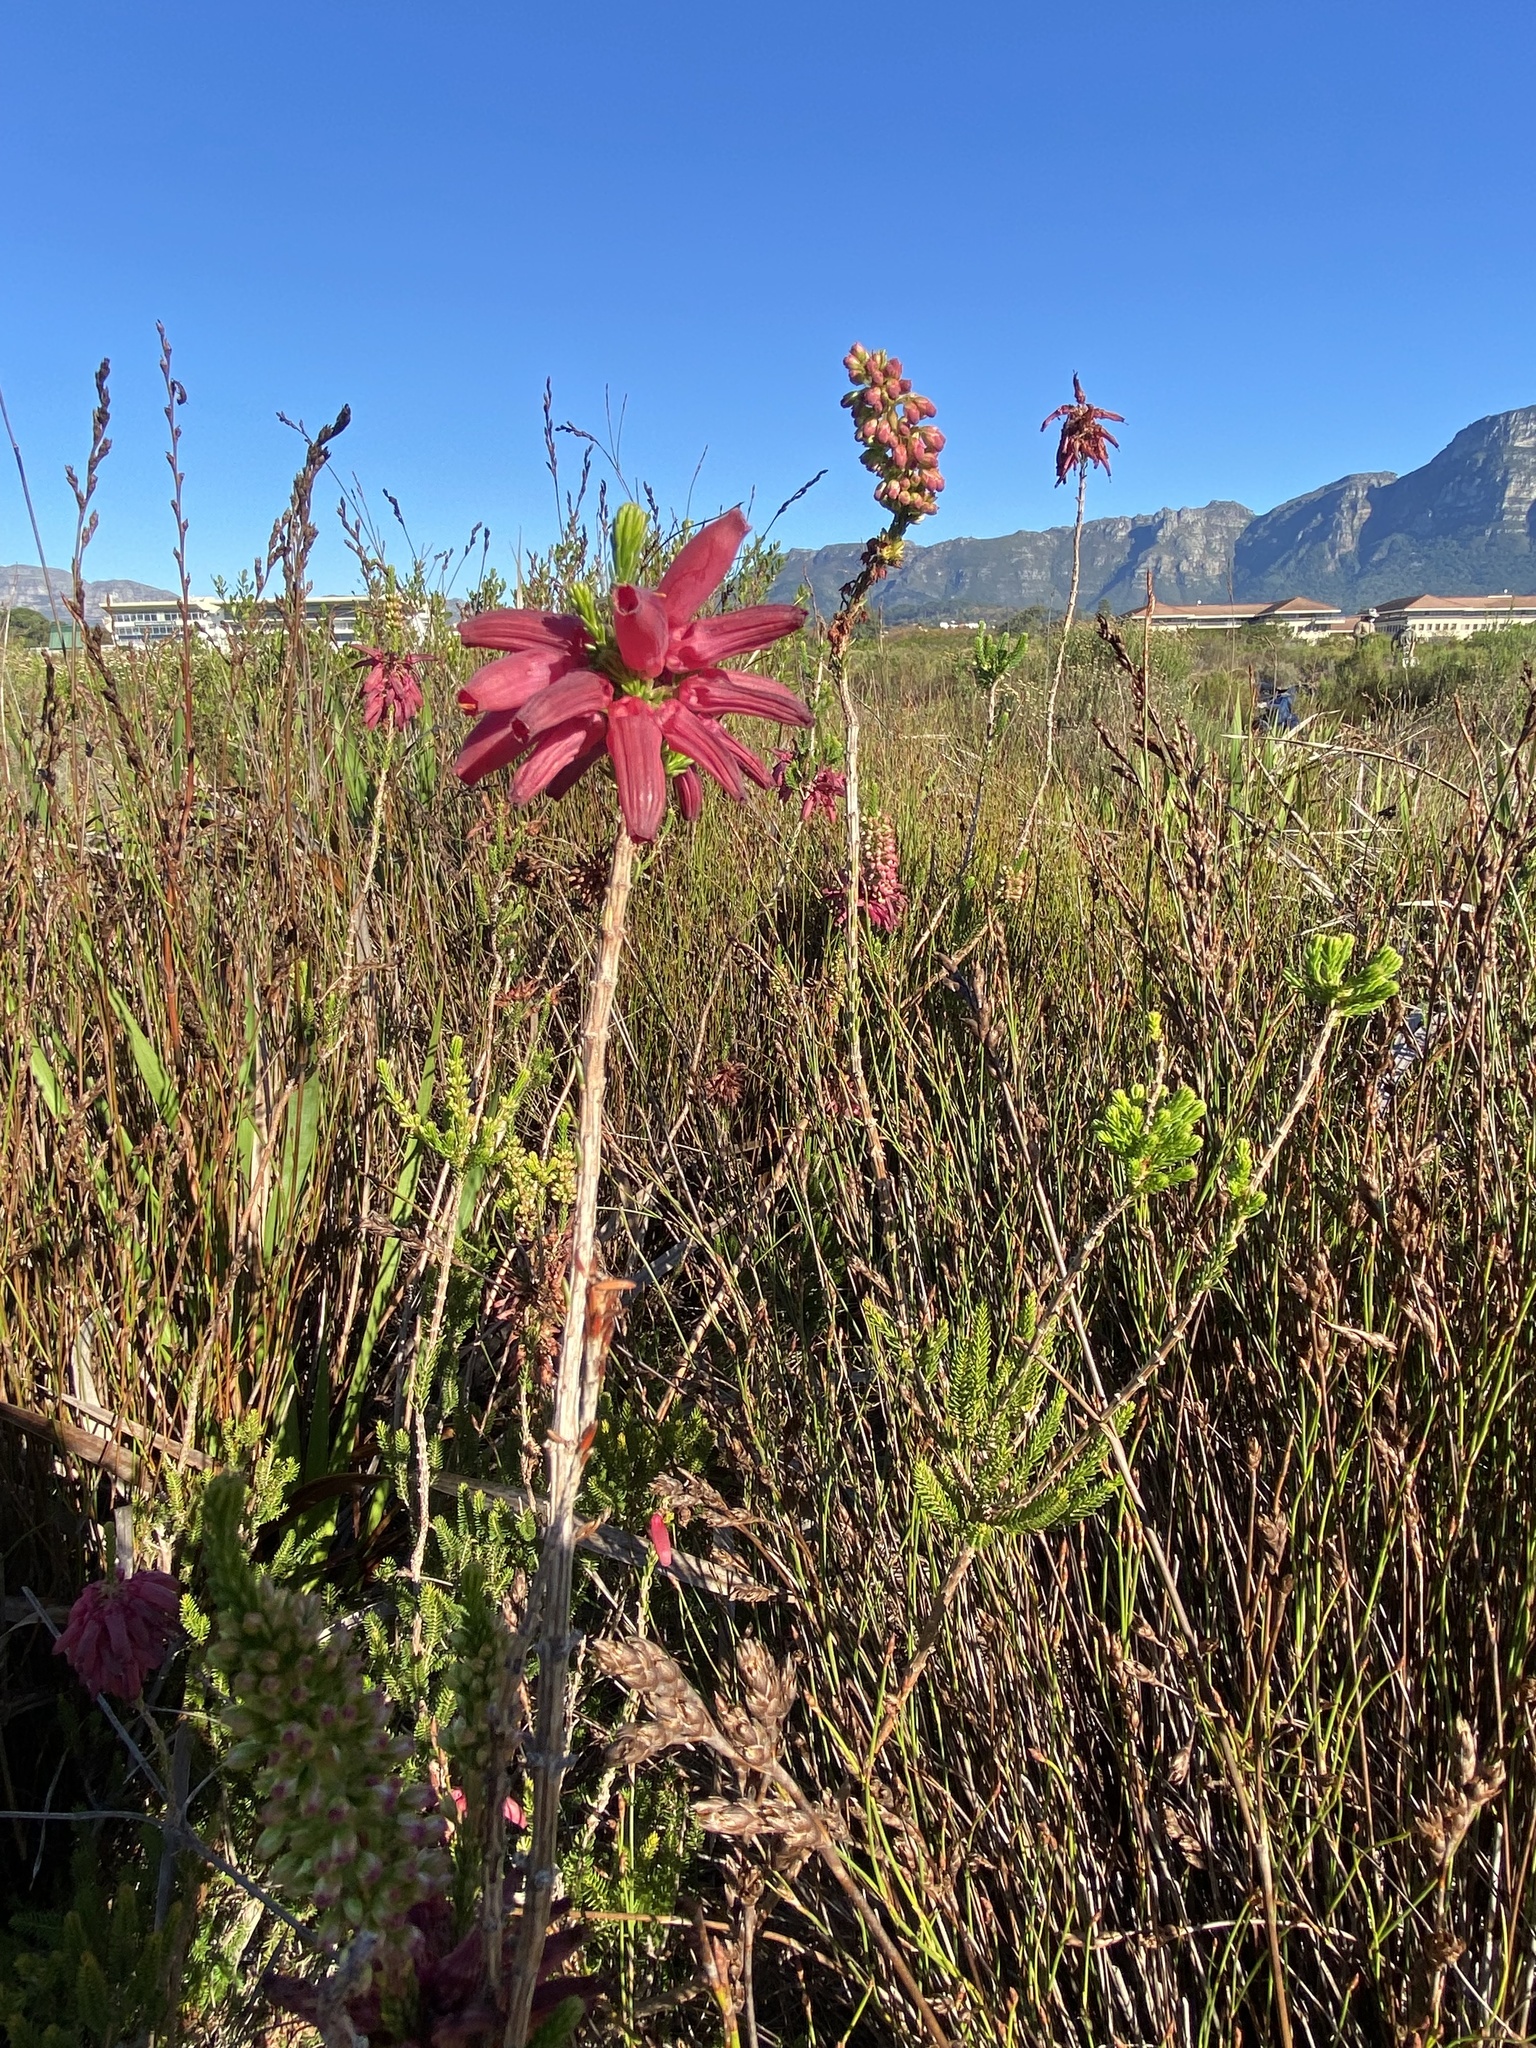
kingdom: Plantae
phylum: Tracheophyta
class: Magnoliopsida
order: Ericales
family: Ericaceae
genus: Erica
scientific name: Erica mammosa
